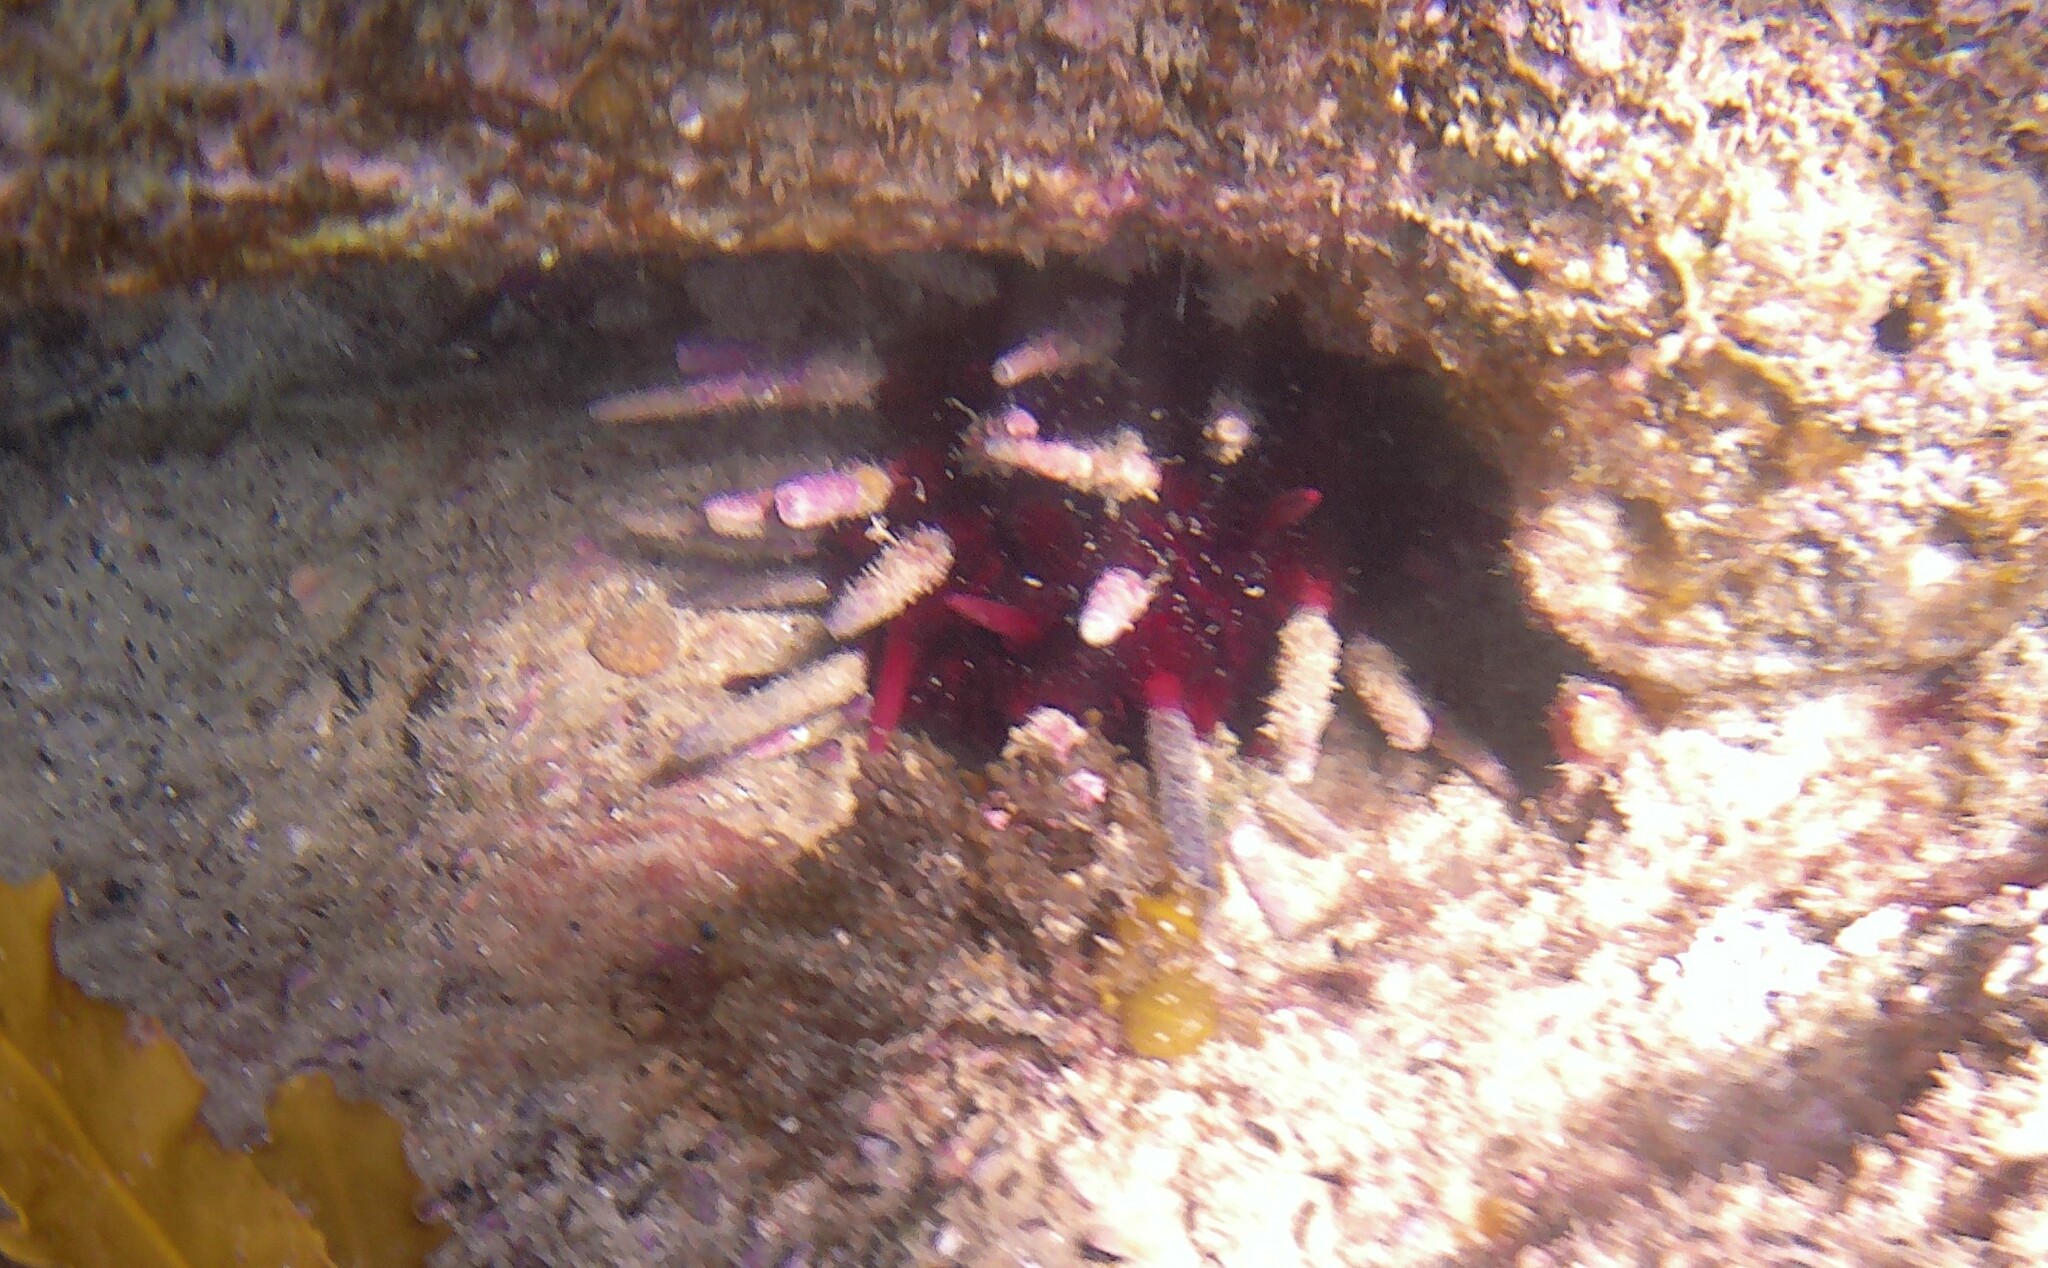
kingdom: Animalia
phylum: Echinodermata
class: Echinoidea
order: Cidaroida
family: Cidaridae
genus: Phyllacanthus
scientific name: Phyllacanthus parvispinus
